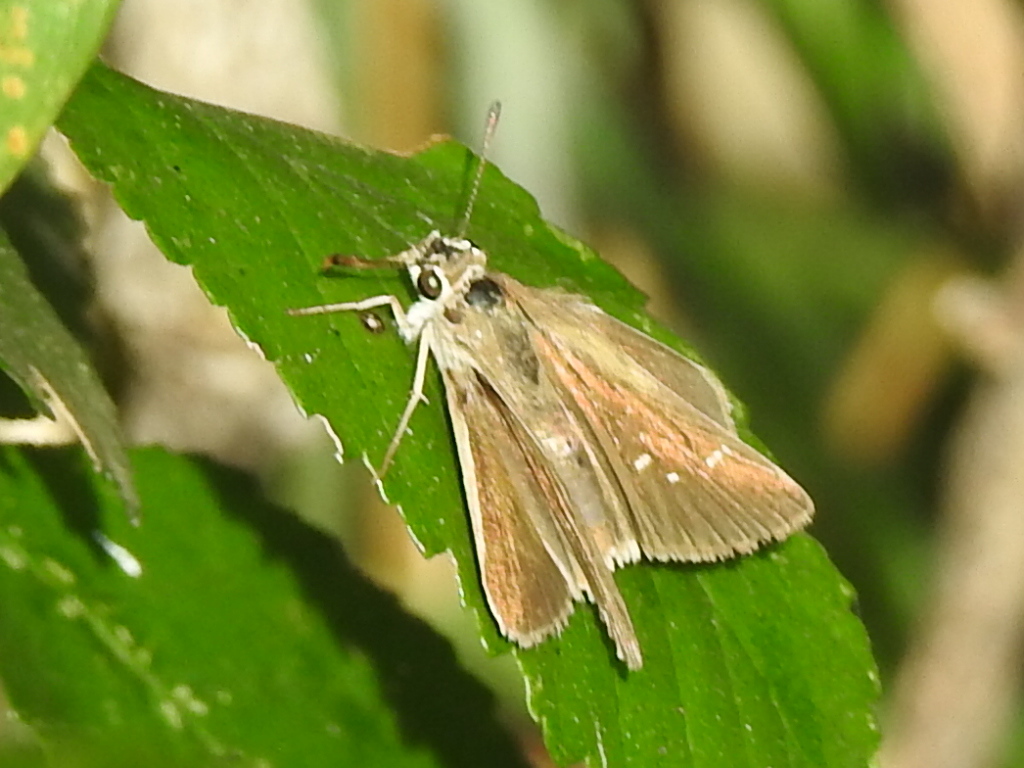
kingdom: Animalia
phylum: Arthropoda
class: Insecta
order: Lepidoptera
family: Hesperiidae
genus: Lerodea
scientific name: Lerodea eufala
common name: Eufala skipper
